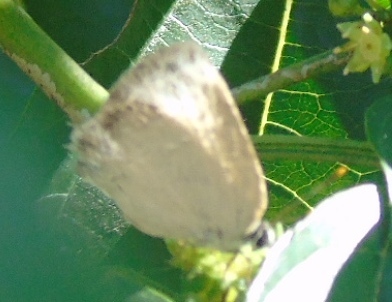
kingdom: Animalia
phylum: Arthropoda
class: Insecta
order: Lepidoptera
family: Lycaenidae
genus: Panthiades
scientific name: Panthiades bitias
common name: Bitias hairstreak
